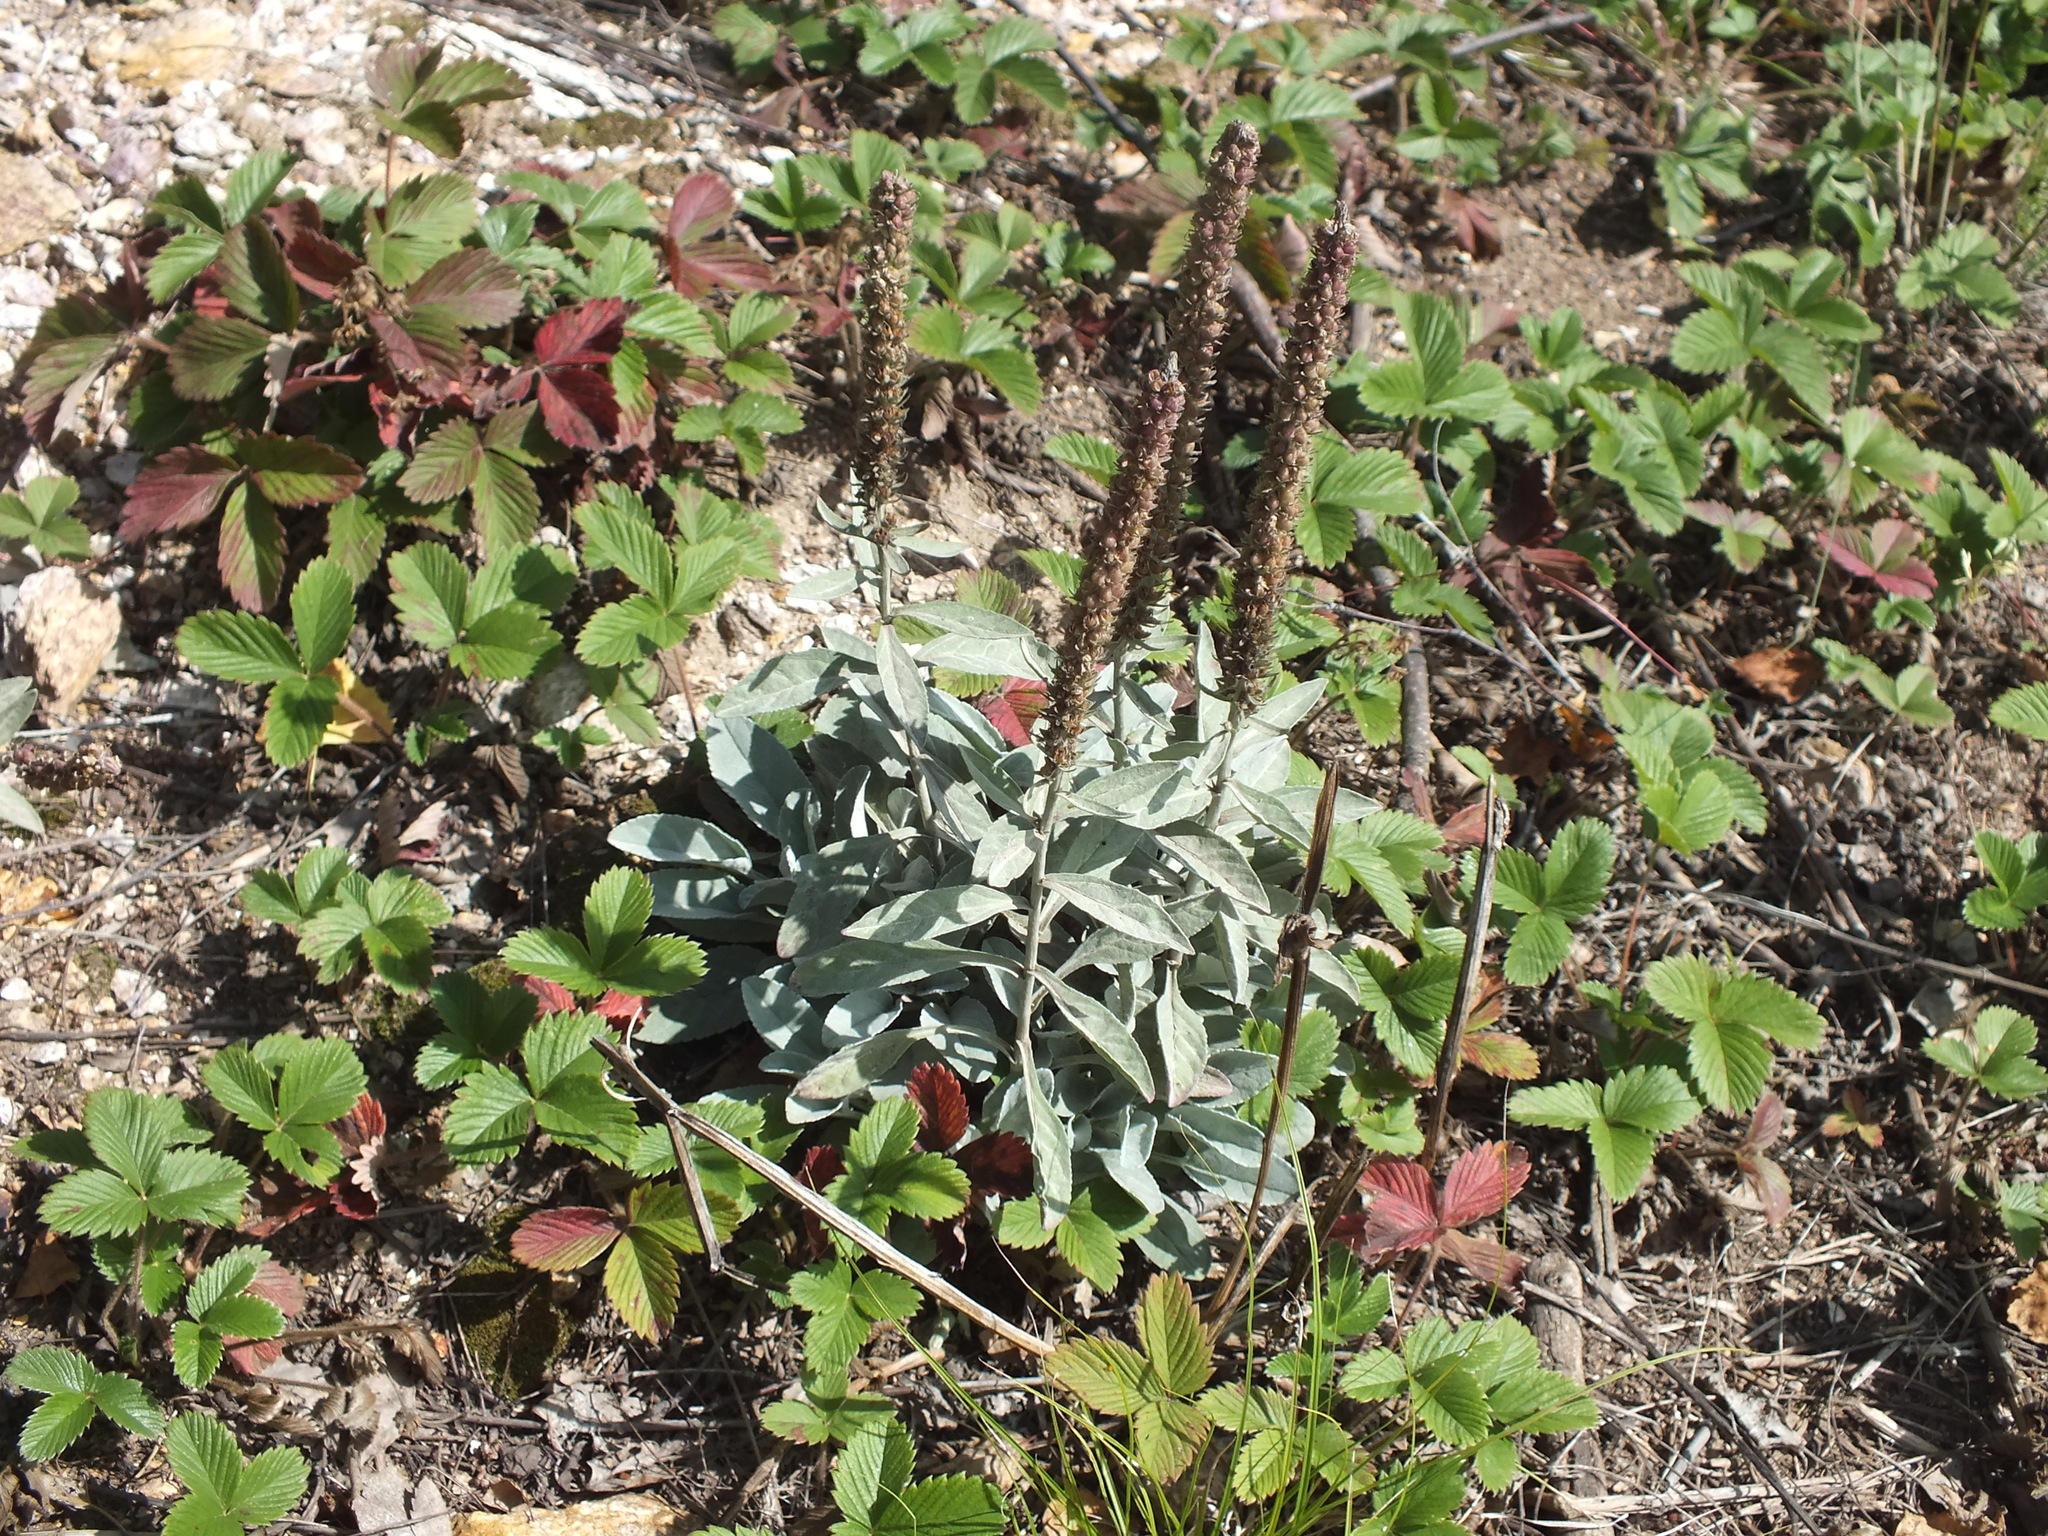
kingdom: Plantae
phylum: Tracheophyta
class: Magnoliopsida
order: Lamiales
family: Plantaginaceae
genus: Veronica
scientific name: Veronica incana
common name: Silver speedwell
